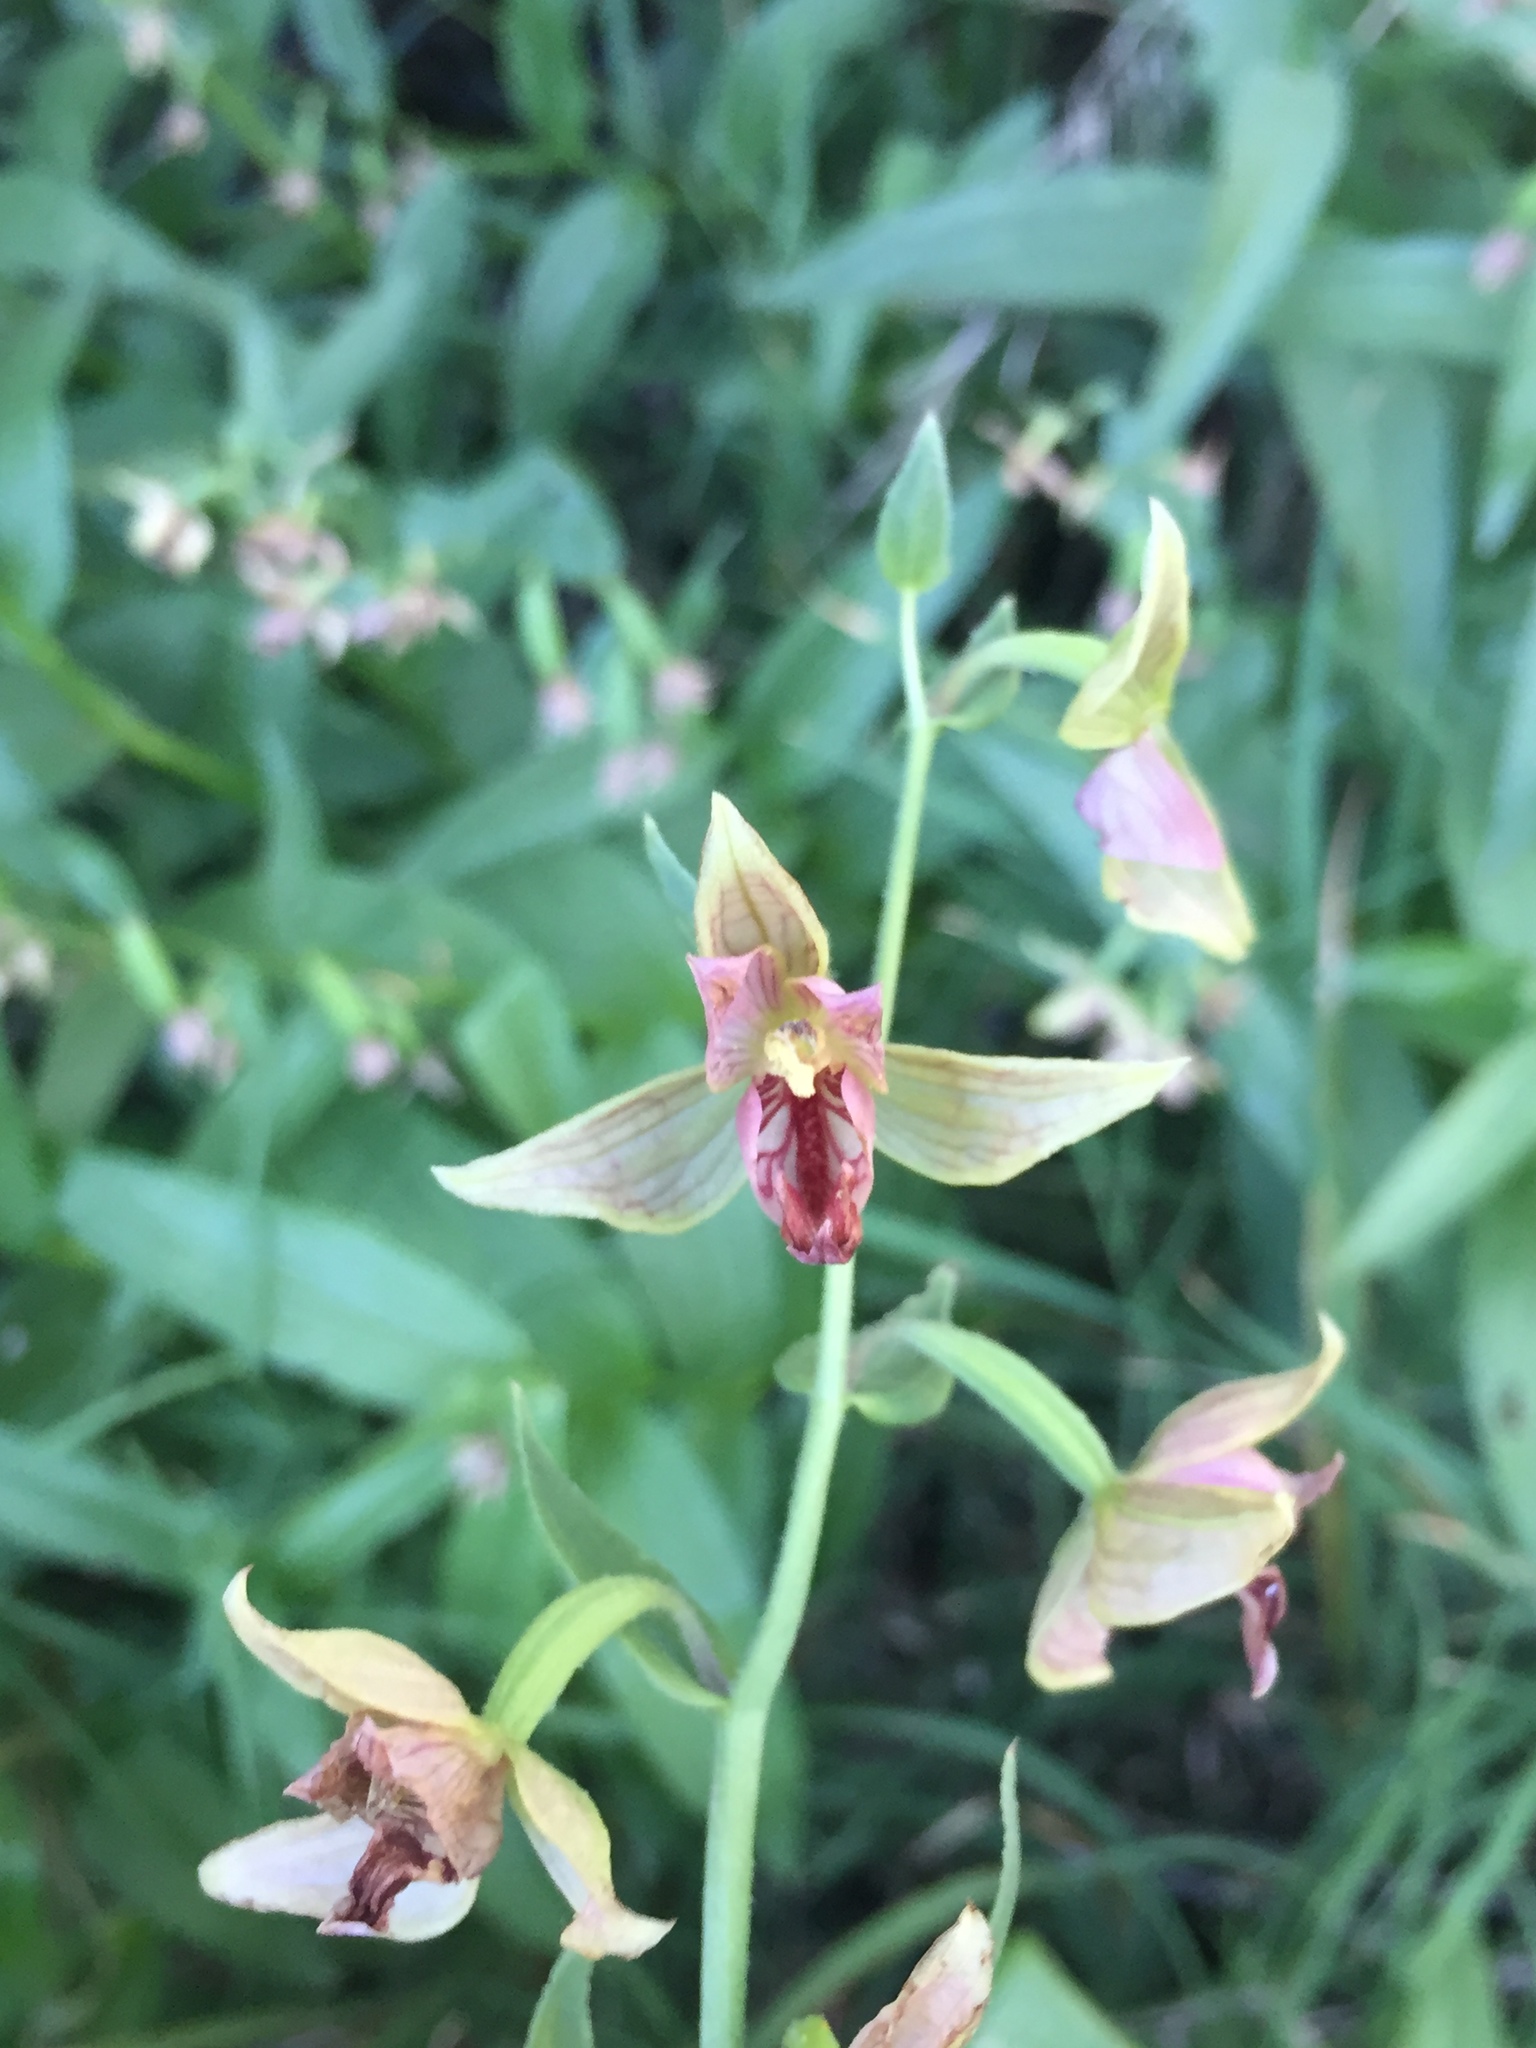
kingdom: Plantae
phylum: Tracheophyta
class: Liliopsida
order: Asparagales
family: Orchidaceae
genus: Epipactis
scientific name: Epipactis gigantea
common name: Chatterbox
